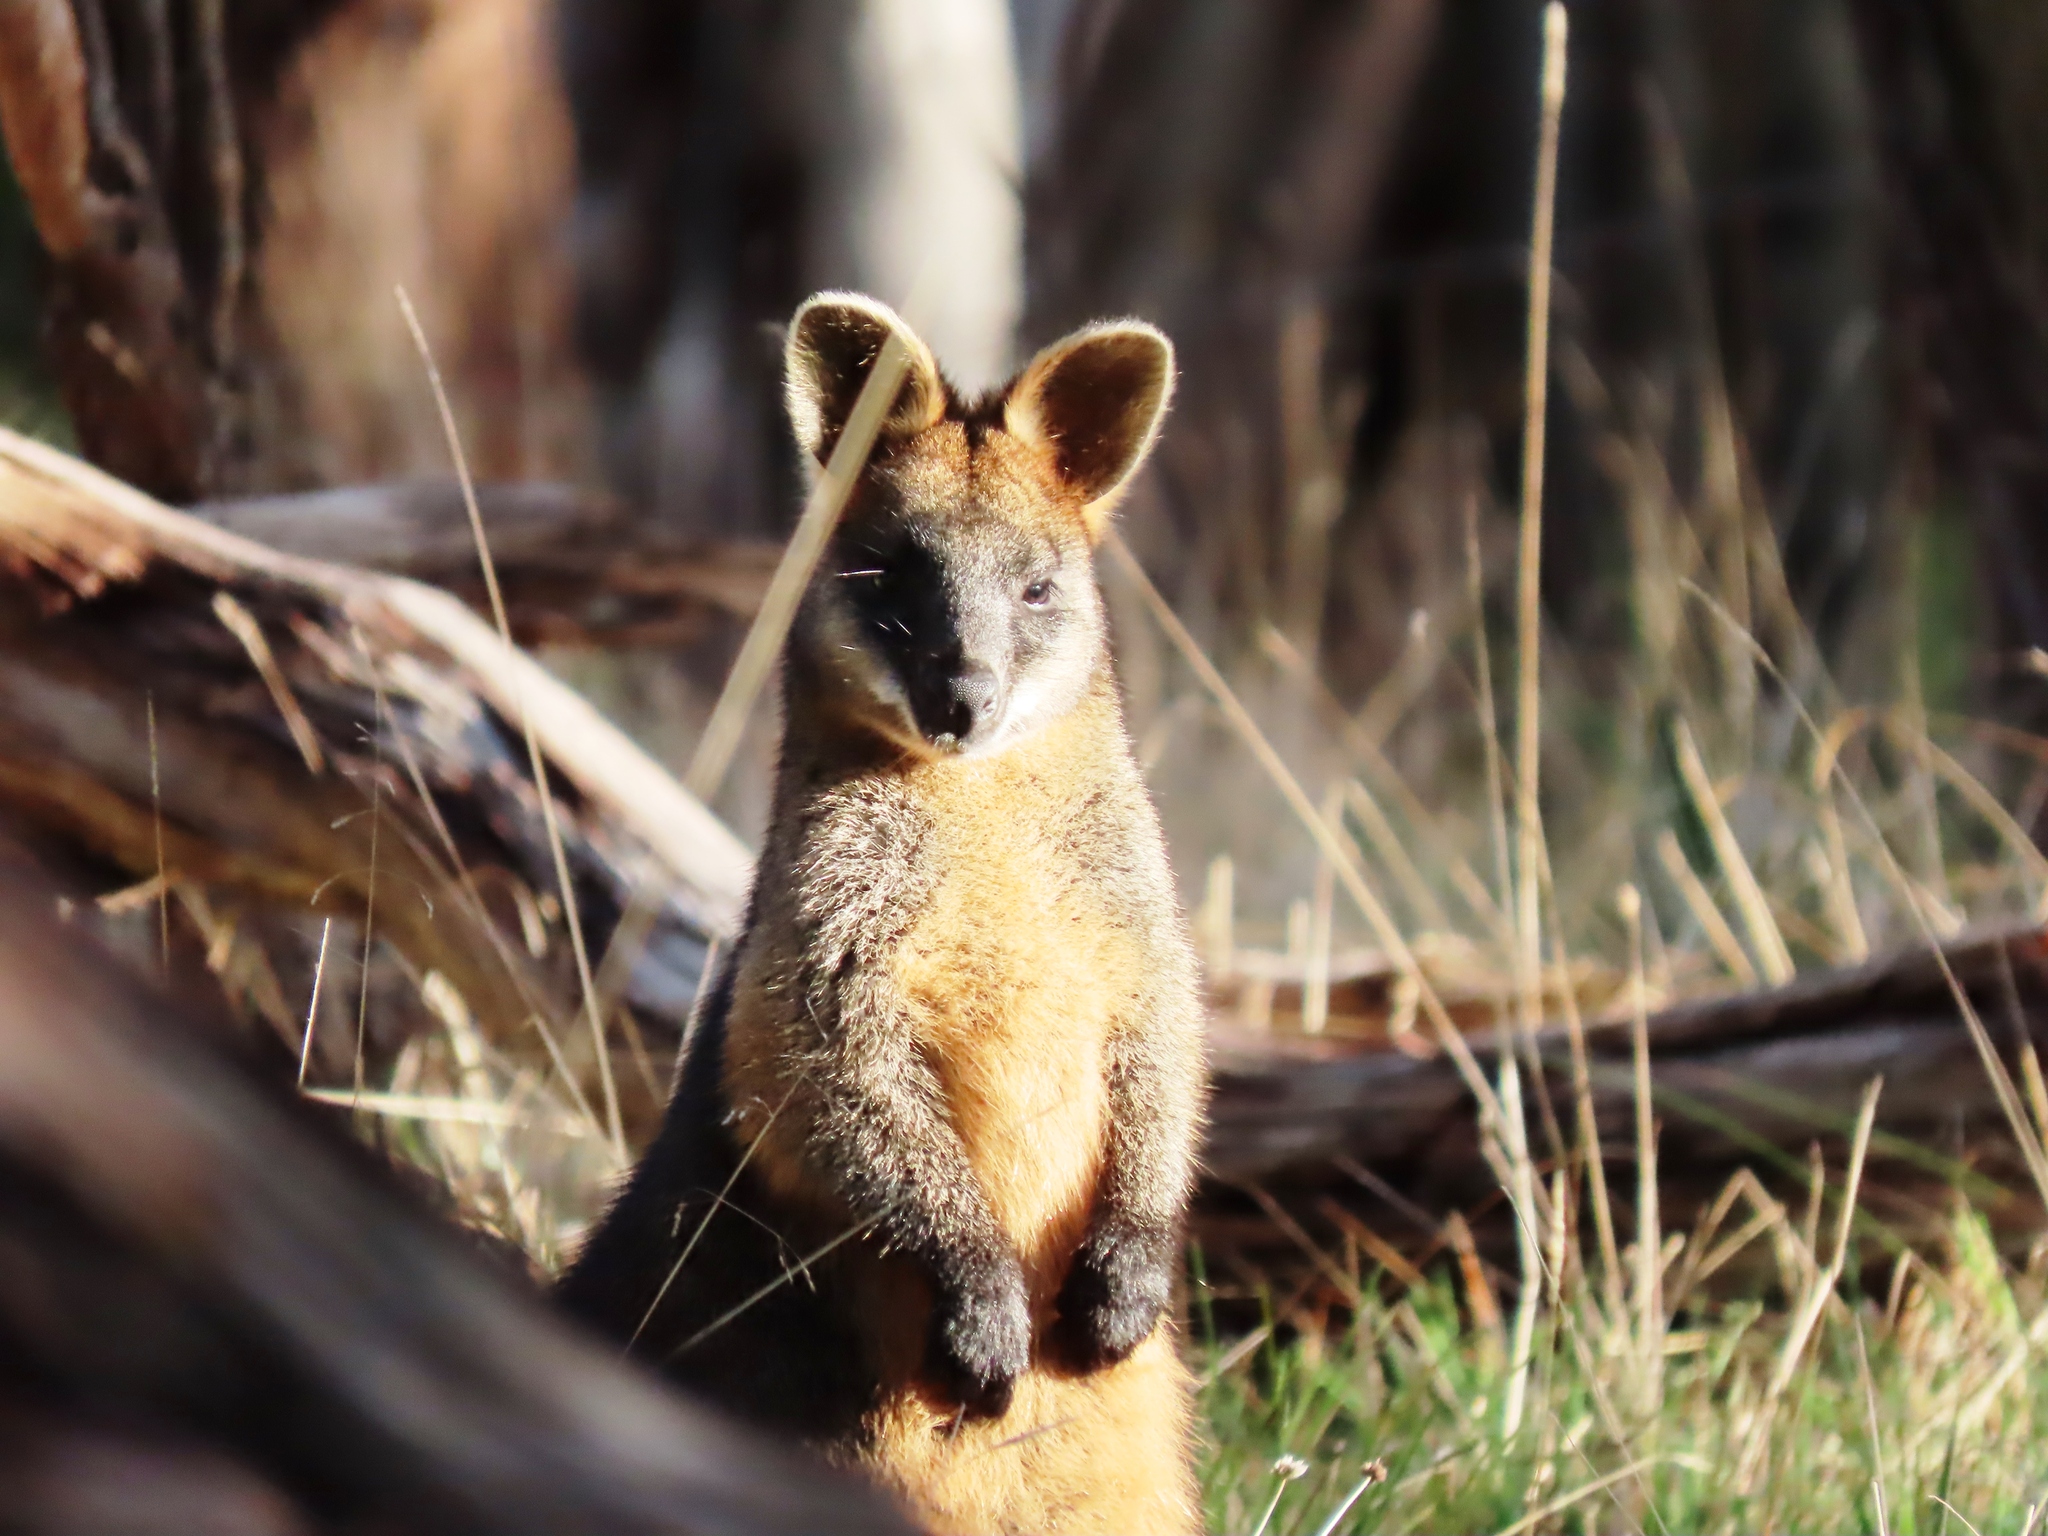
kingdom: Animalia
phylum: Chordata
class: Mammalia
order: Diprotodontia
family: Macropodidae
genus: Wallabia
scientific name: Wallabia bicolor
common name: Swamp wallaby
